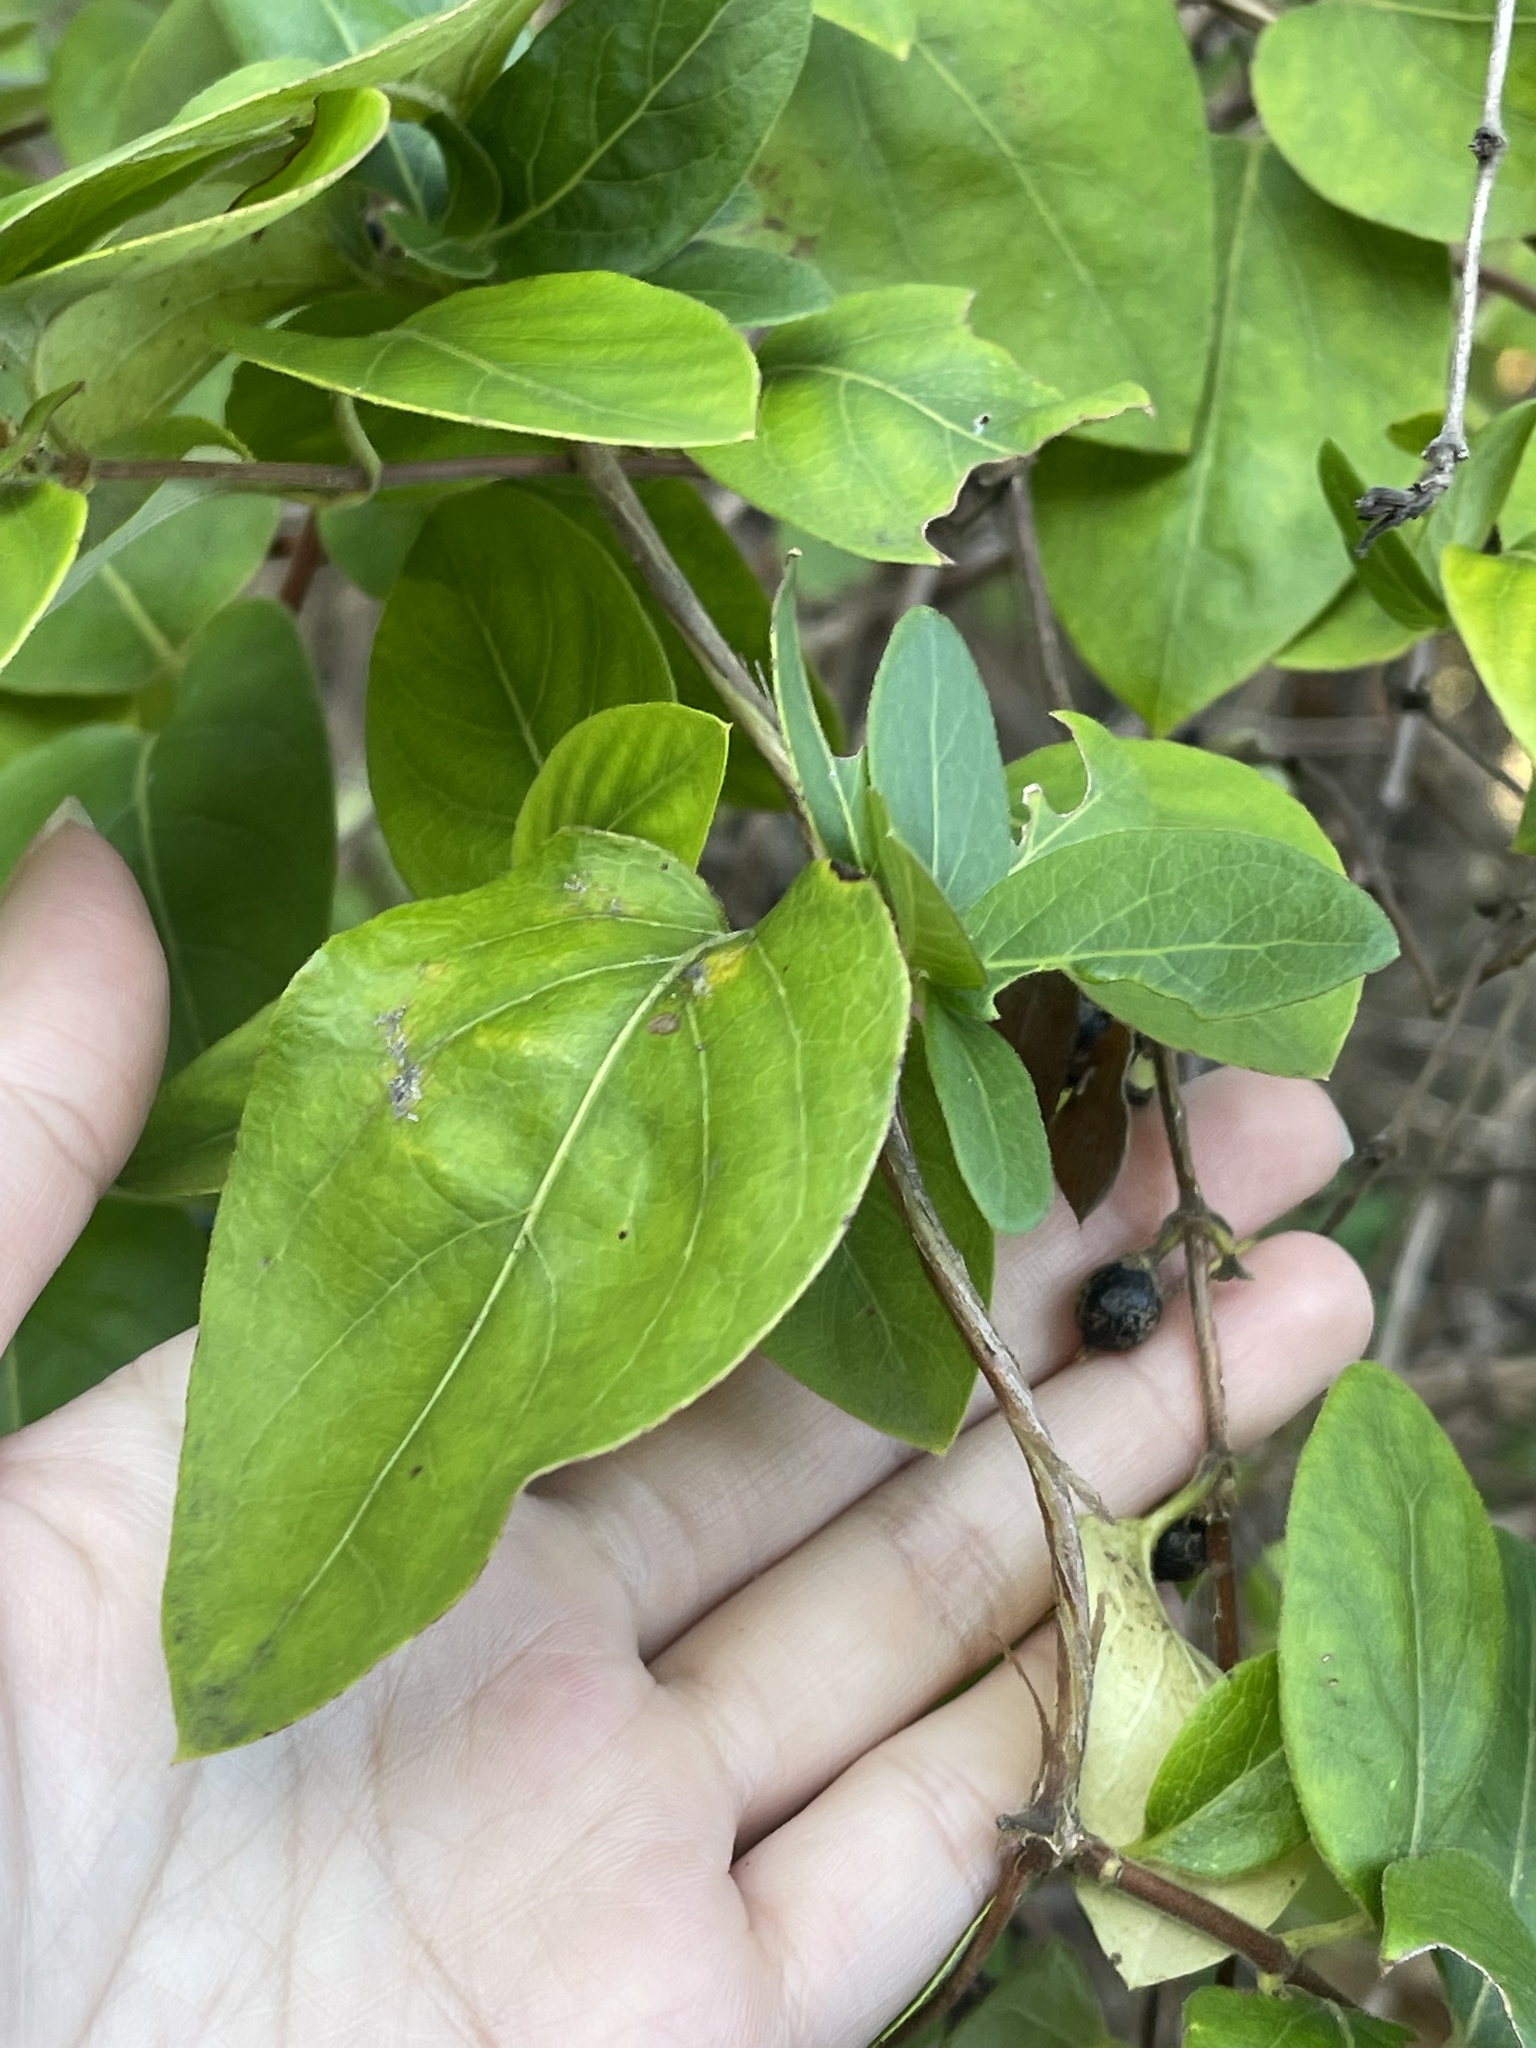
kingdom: Plantae
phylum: Tracheophyta
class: Magnoliopsida
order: Dipsacales
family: Caprifoliaceae
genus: Lonicera
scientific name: Lonicera japonica
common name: Japanese honeysuckle
